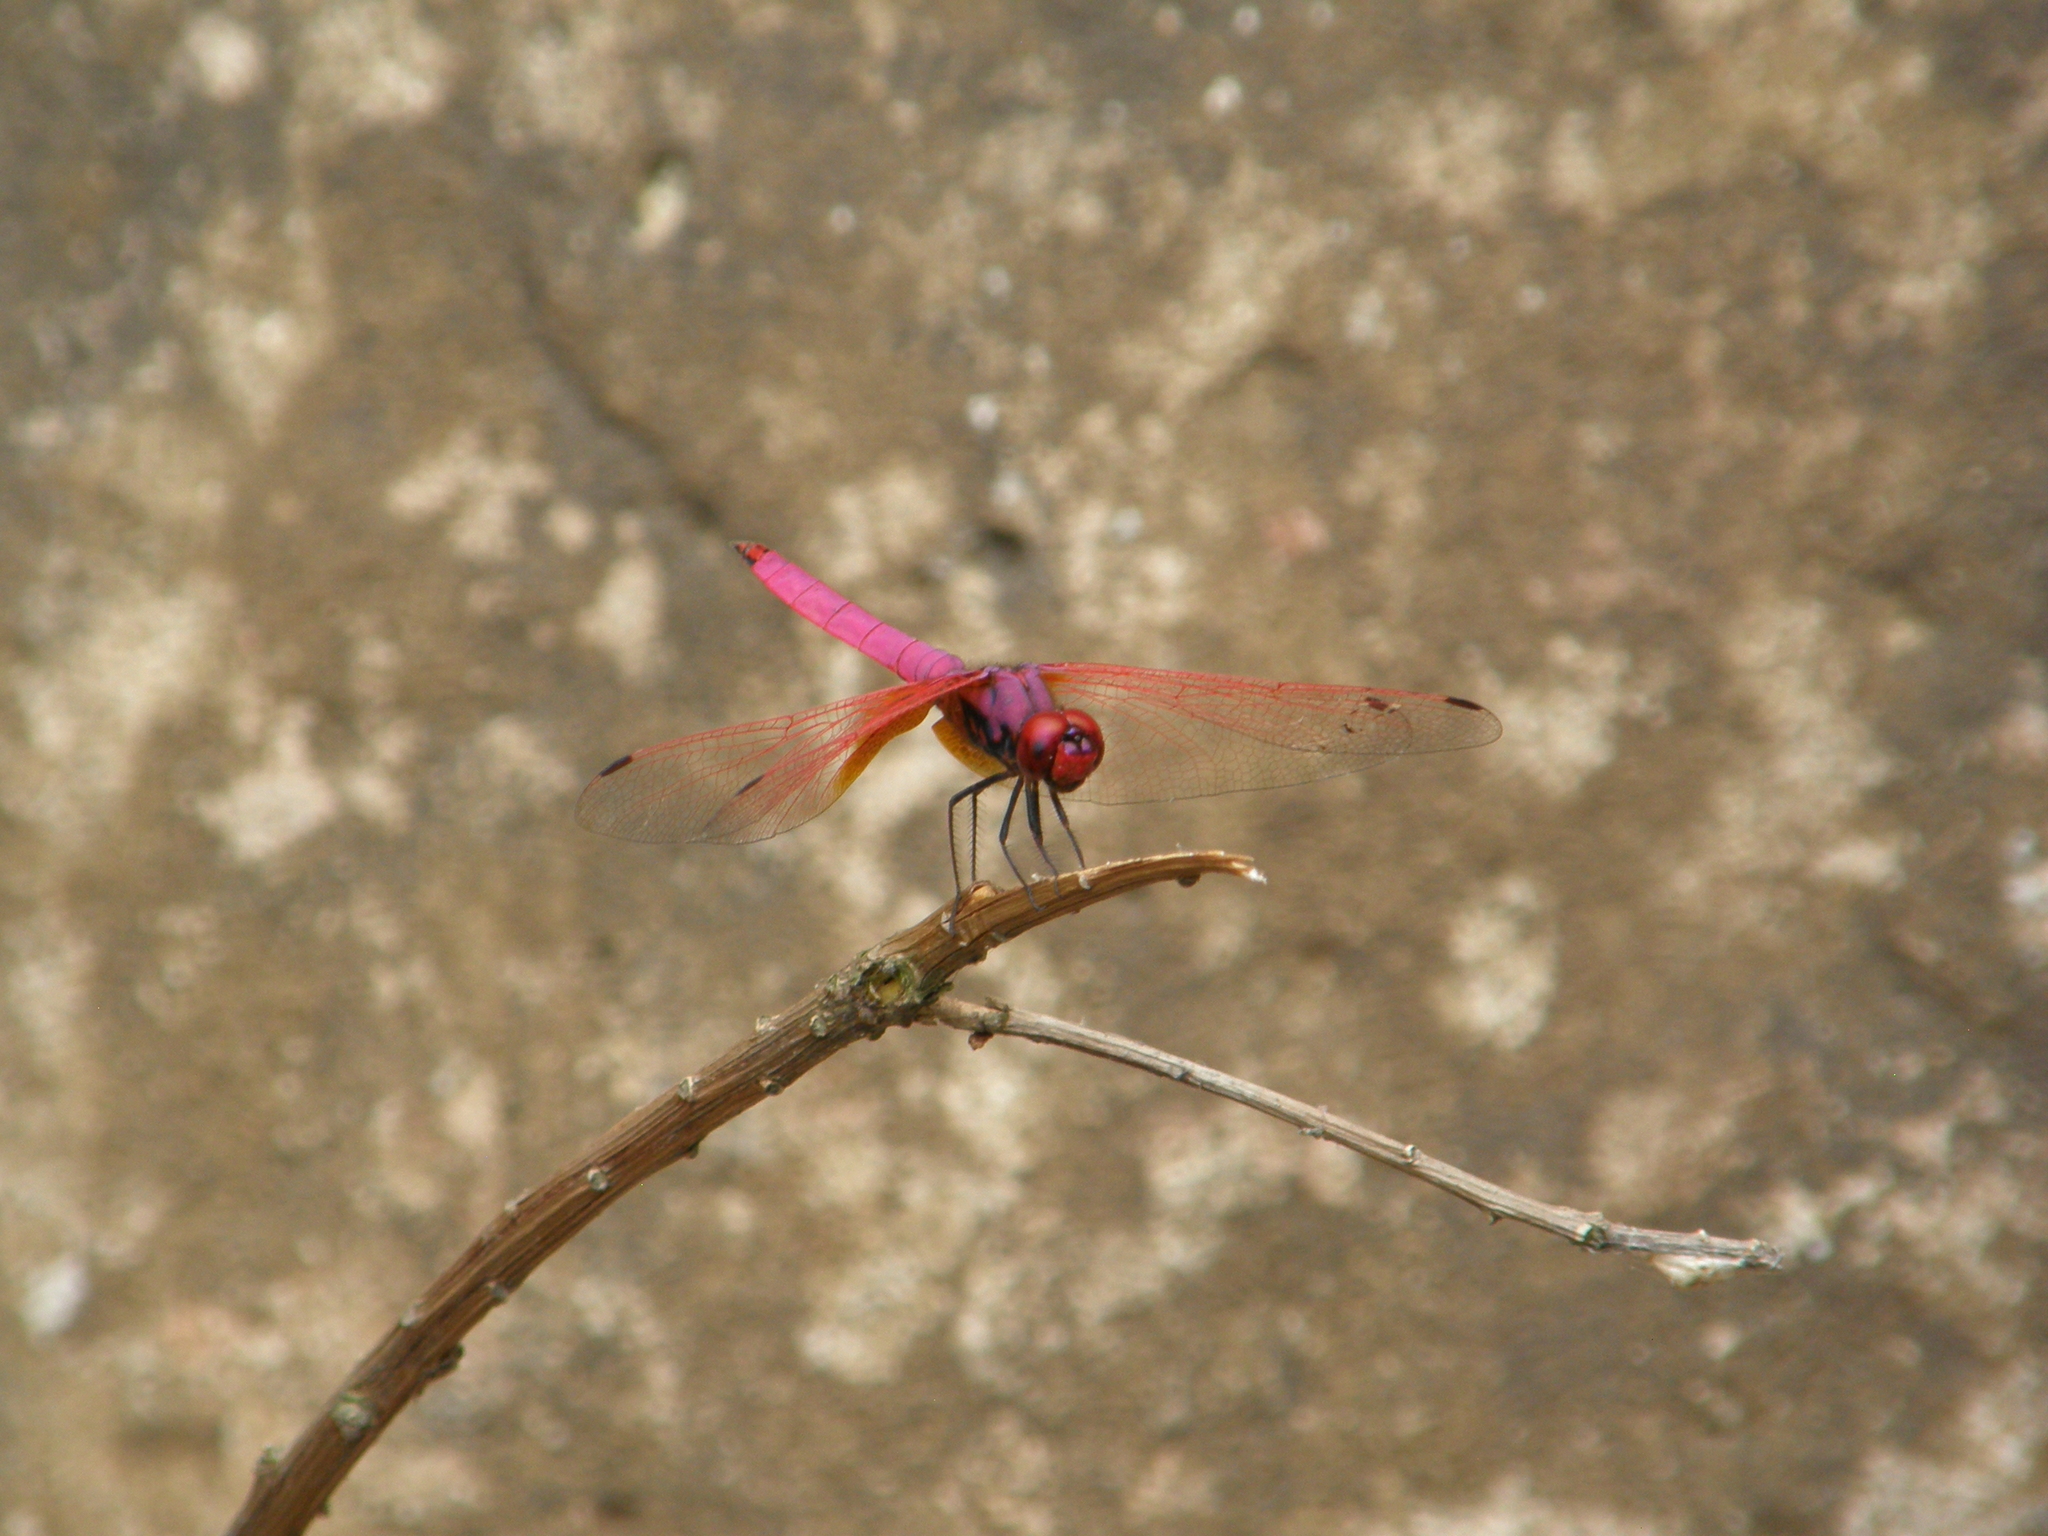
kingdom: Animalia
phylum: Arthropoda
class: Insecta
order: Odonata
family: Libellulidae
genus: Trithemis
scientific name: Trithemis aurora
